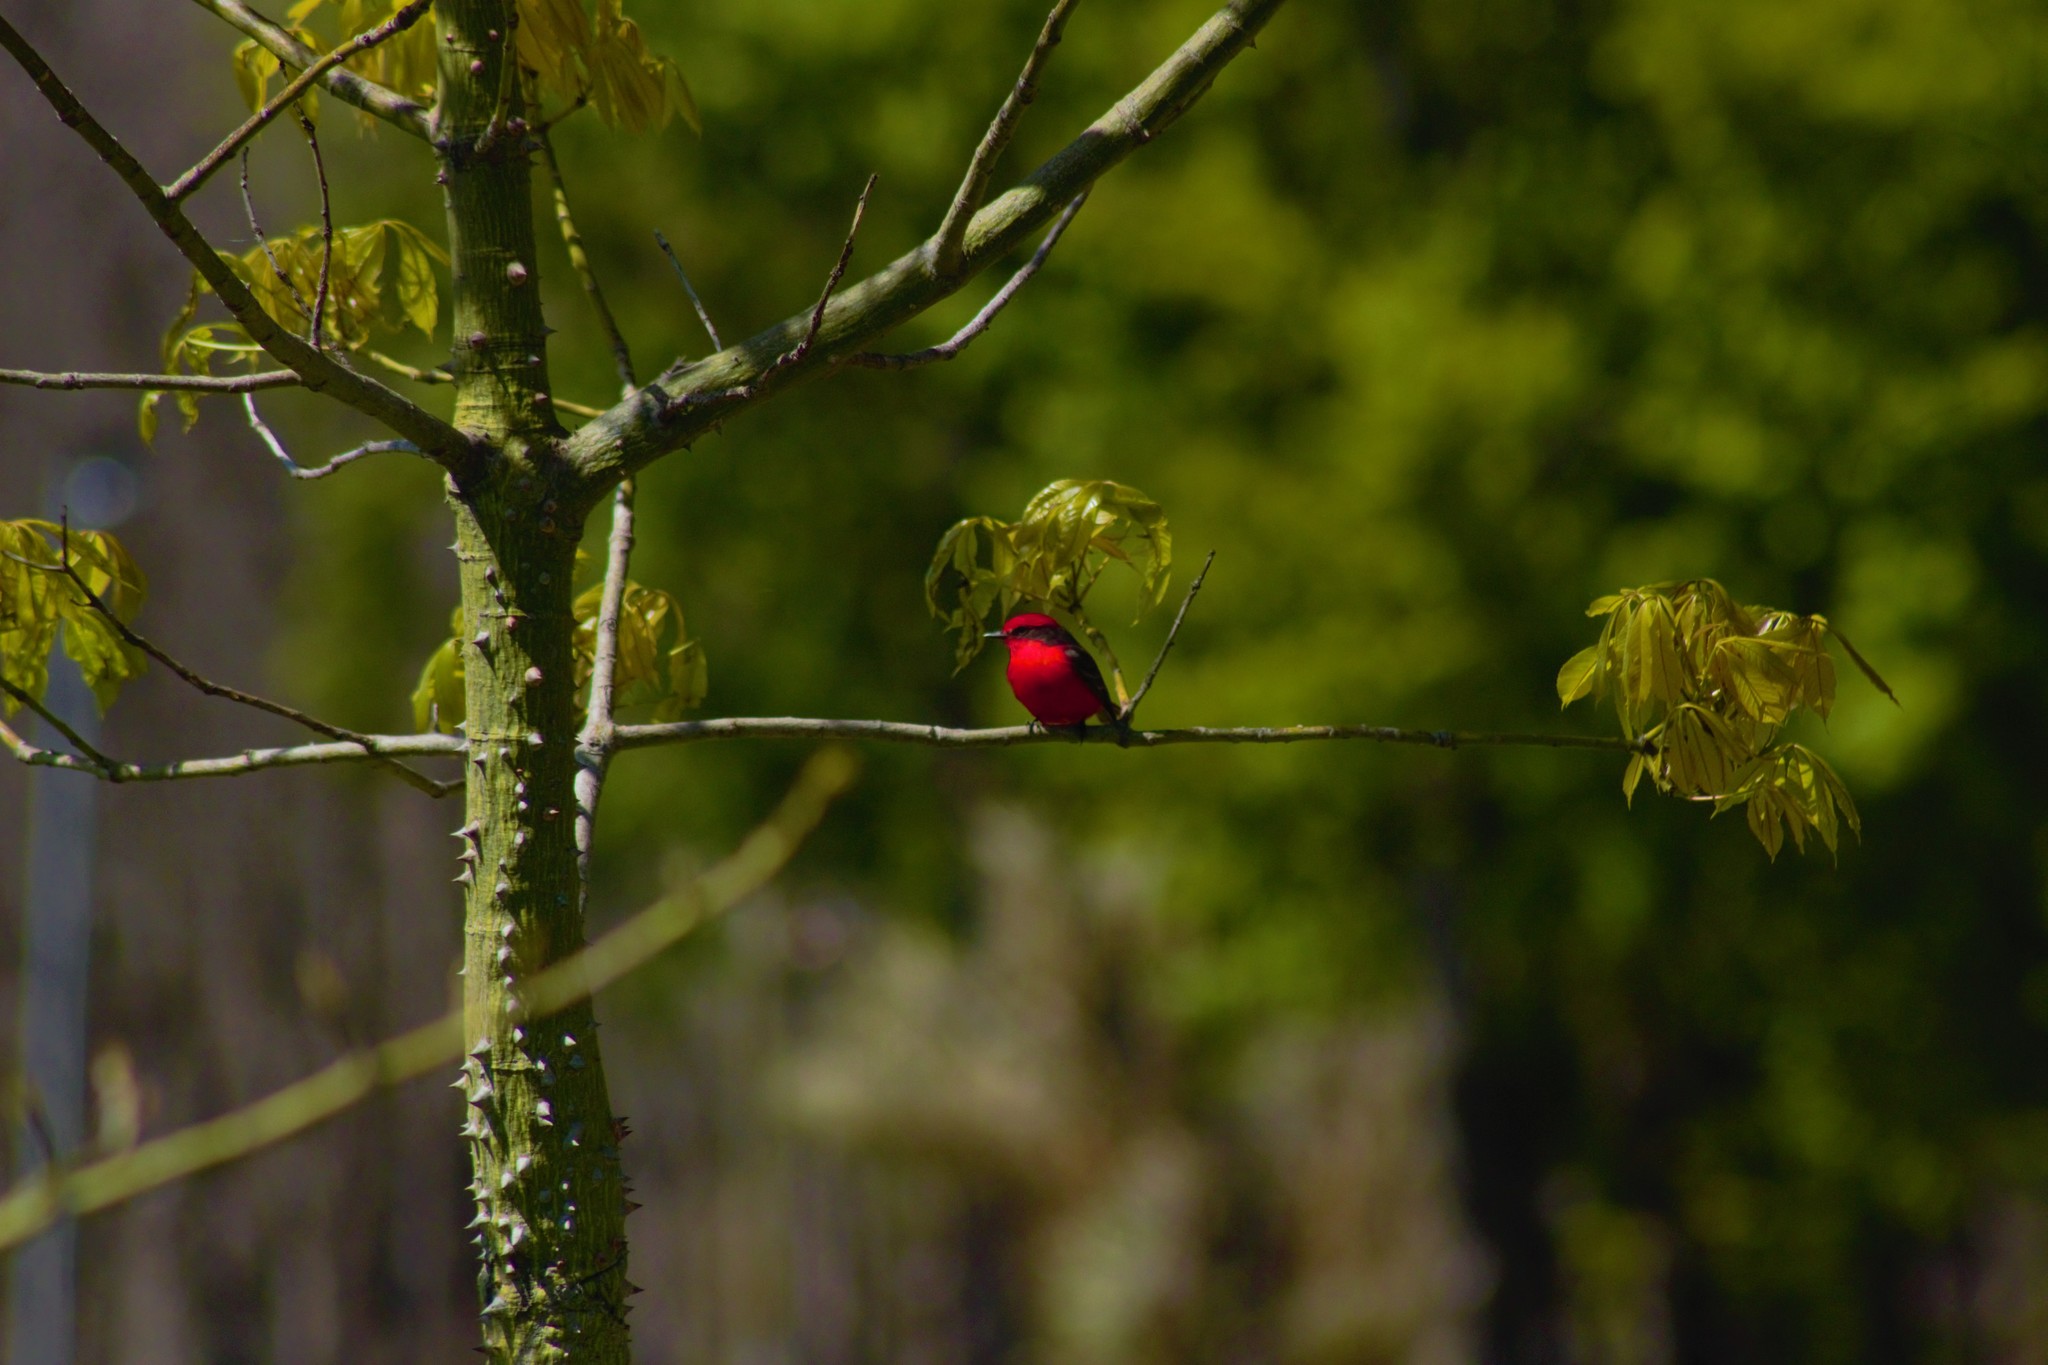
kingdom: Animalia
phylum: Chordata
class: Aves
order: Passeriformes
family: Tyrannidae
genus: Pyrocephalus
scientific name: Pyrocephalus rubinus
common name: Vermilion flycatcher
